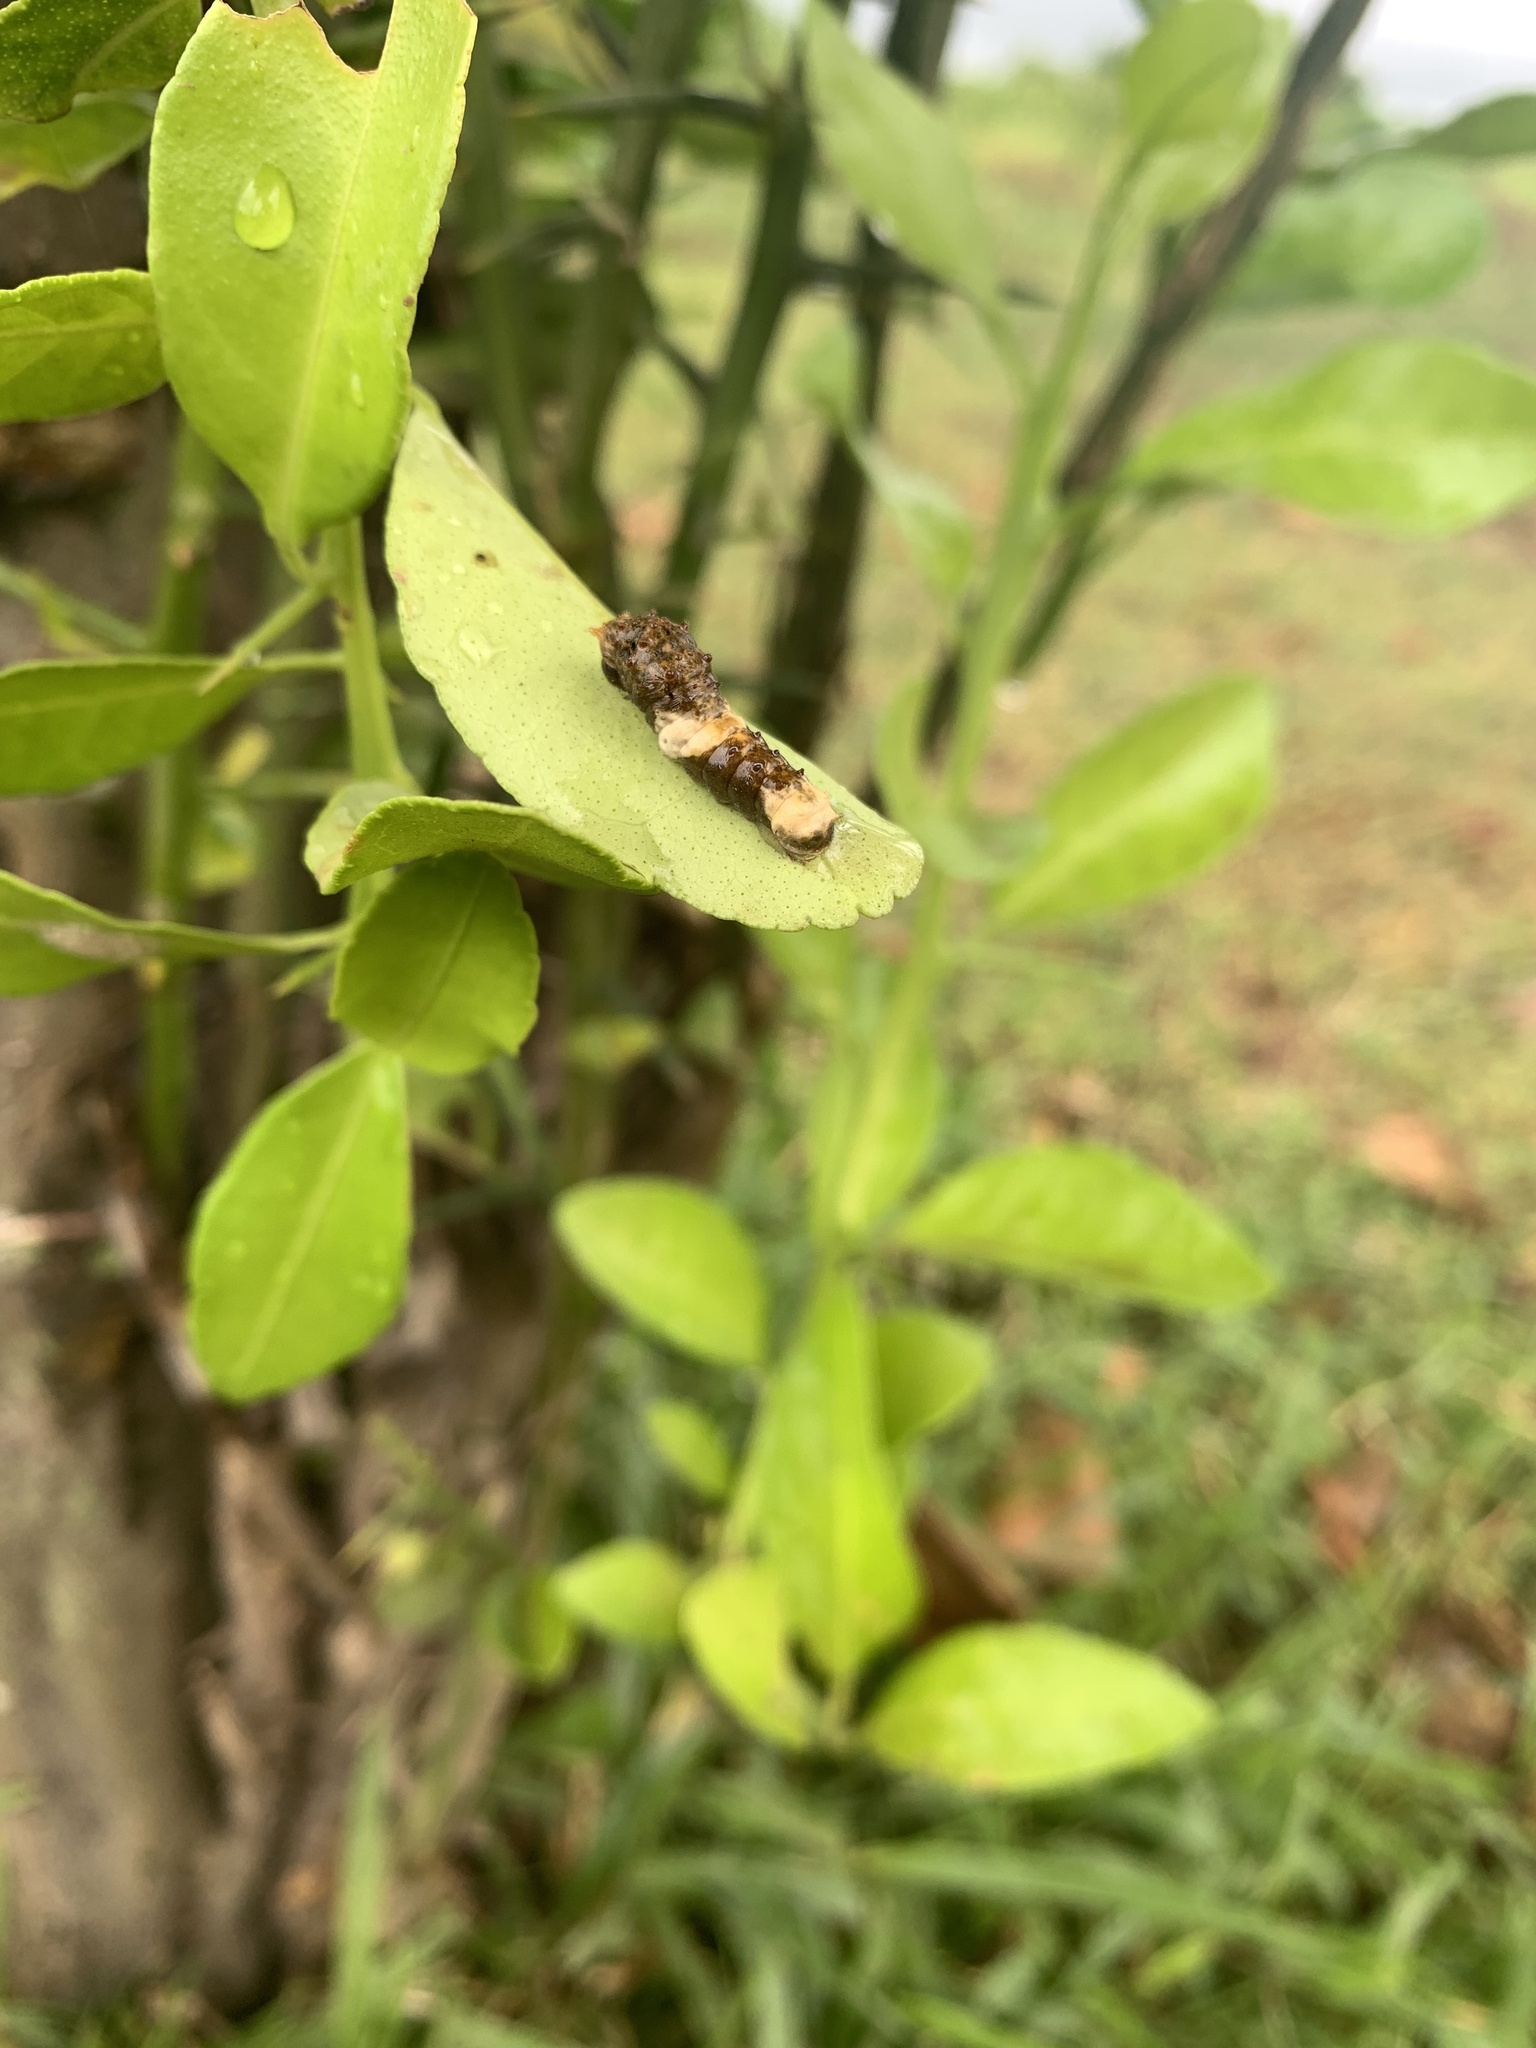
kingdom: Animalia
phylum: Arthropoda
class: Insecta
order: Lepidoptera
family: Papilionidae
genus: Papilio
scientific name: Papilio thoas
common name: King swallowtail
